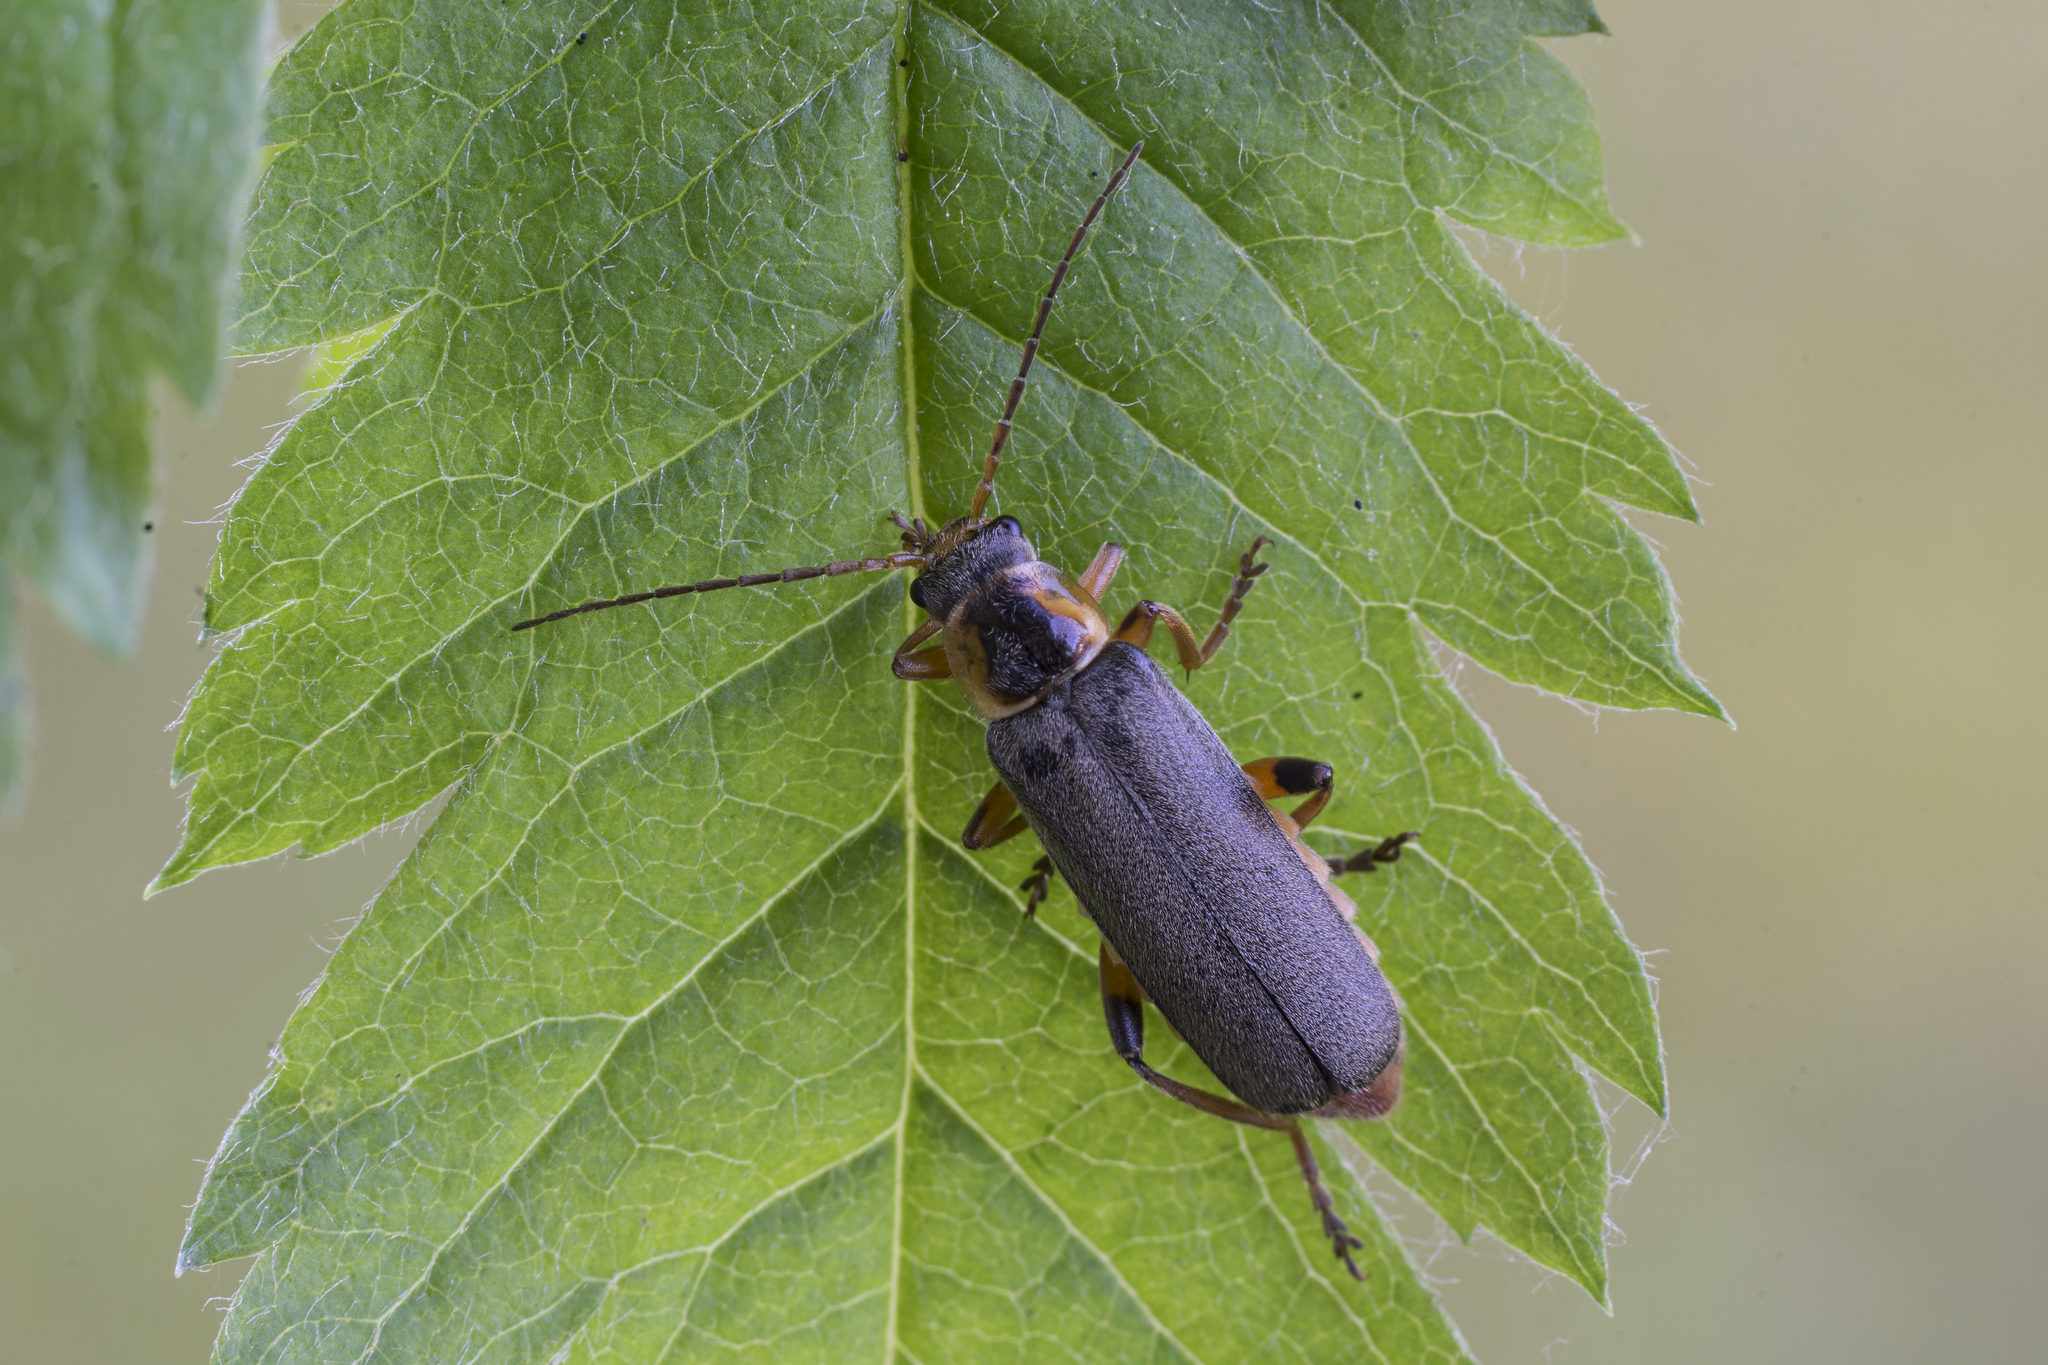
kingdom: Animalia
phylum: Arthropoda
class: Insecta
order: Coleoptera
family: Cantharidae
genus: Cantharis
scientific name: Cantharis nigricans
